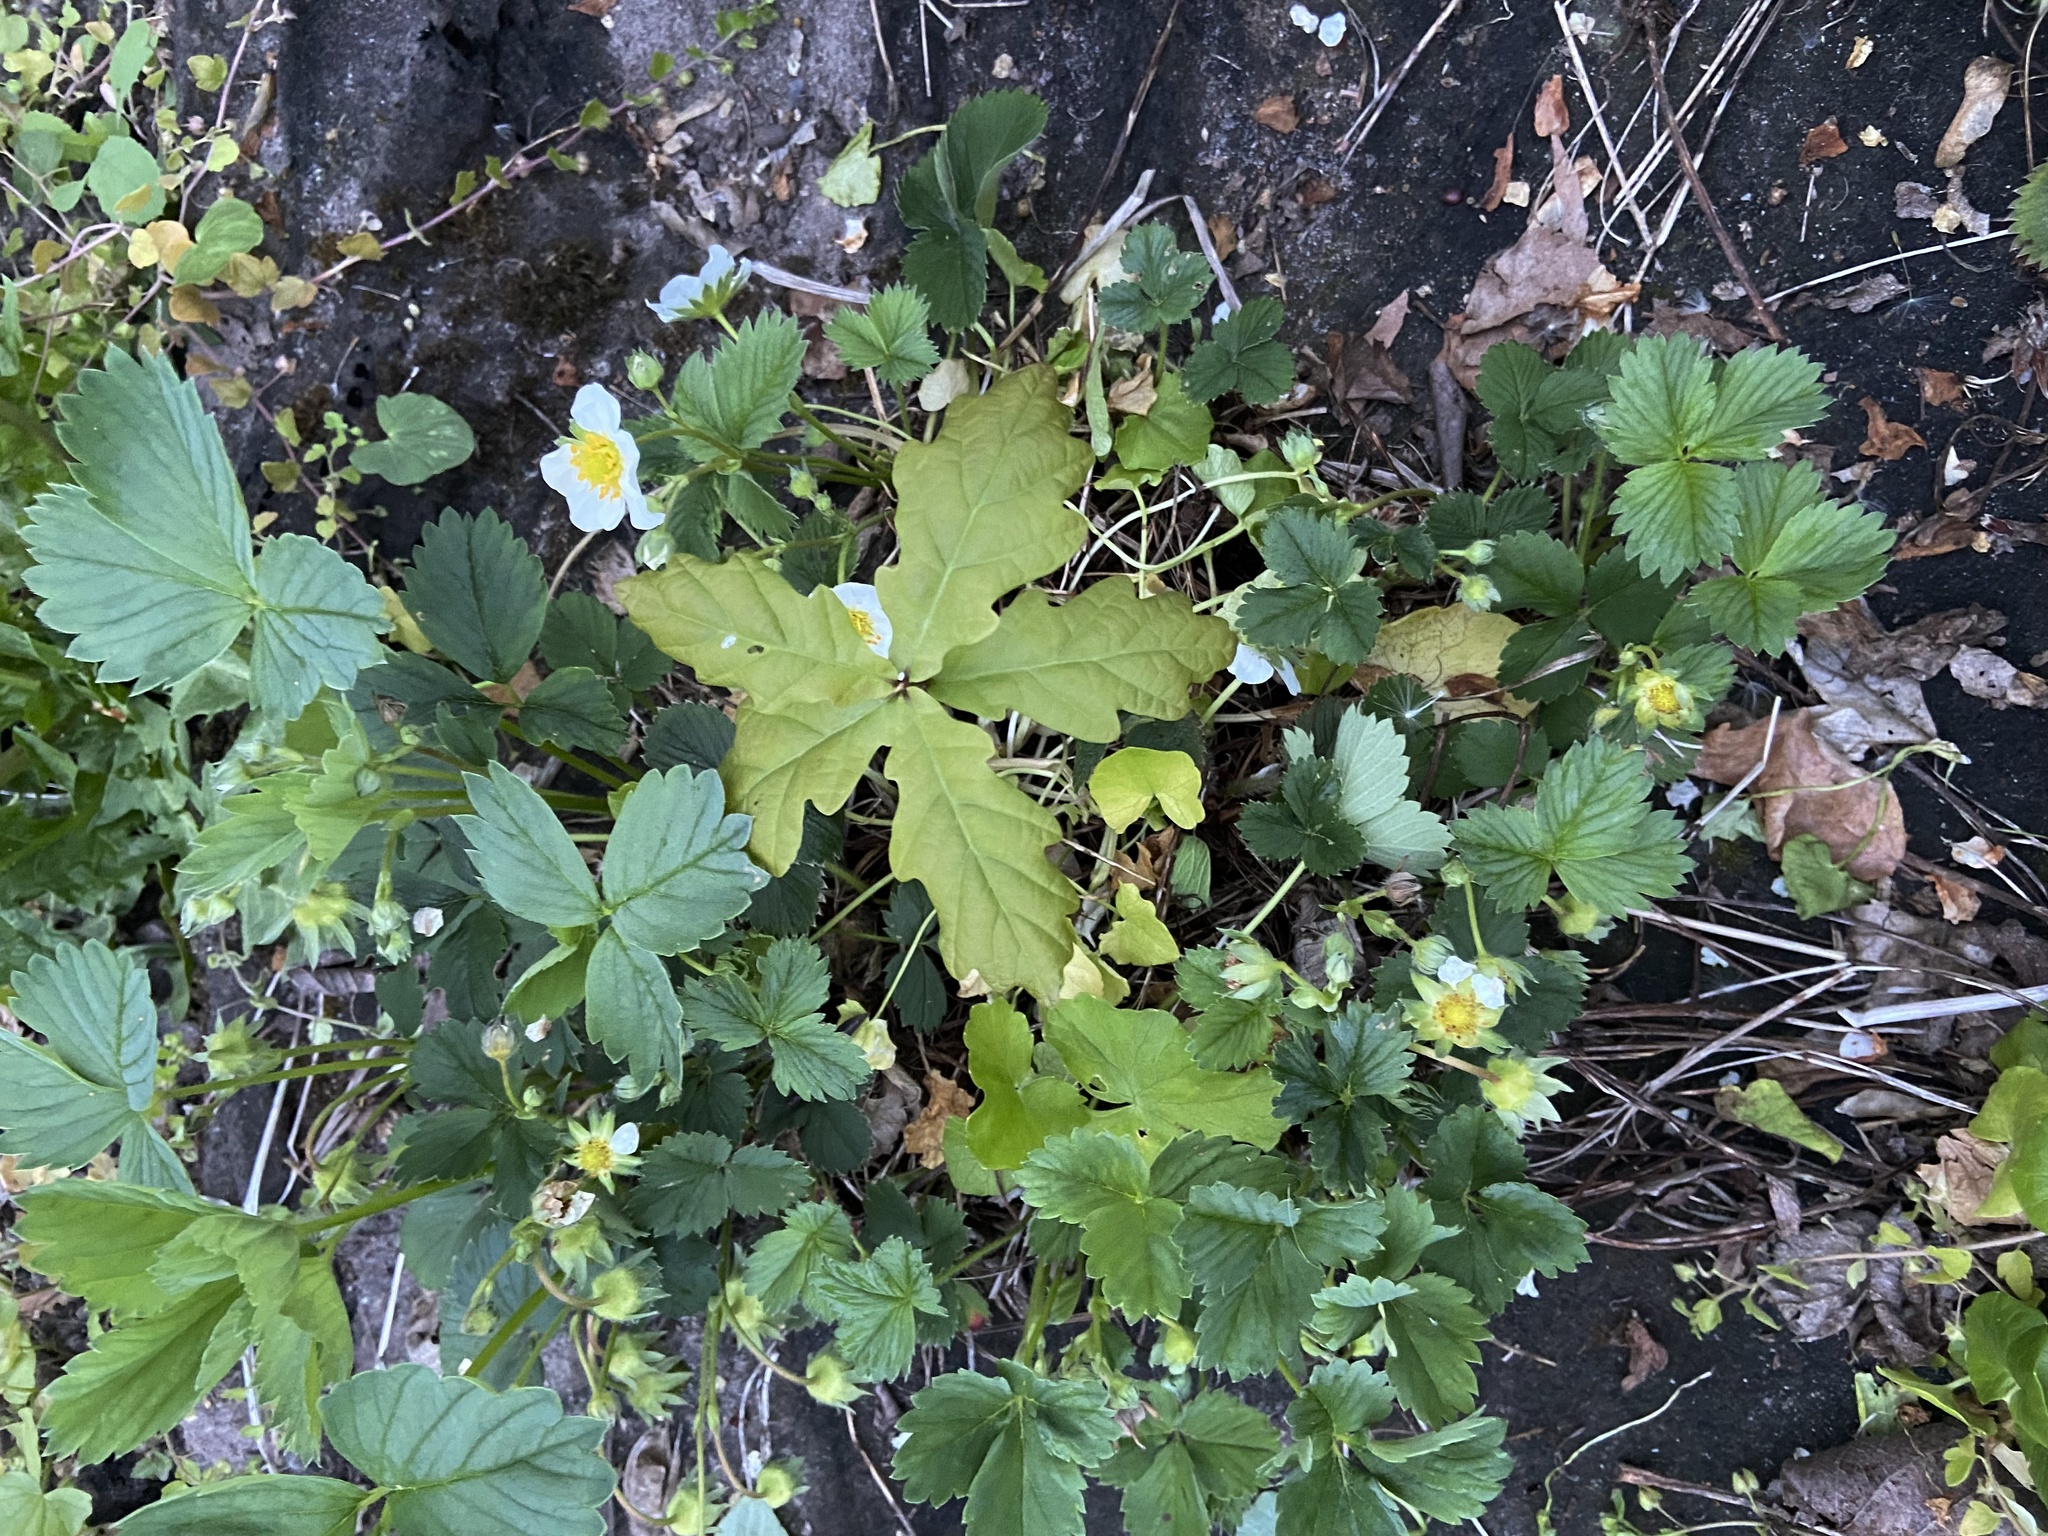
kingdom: Plantae
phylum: Tracheophyta
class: Magnoliopsida
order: Fagales
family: Fagaceae
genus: Quercus
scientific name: Quercus robur
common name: Pedunculate oak
